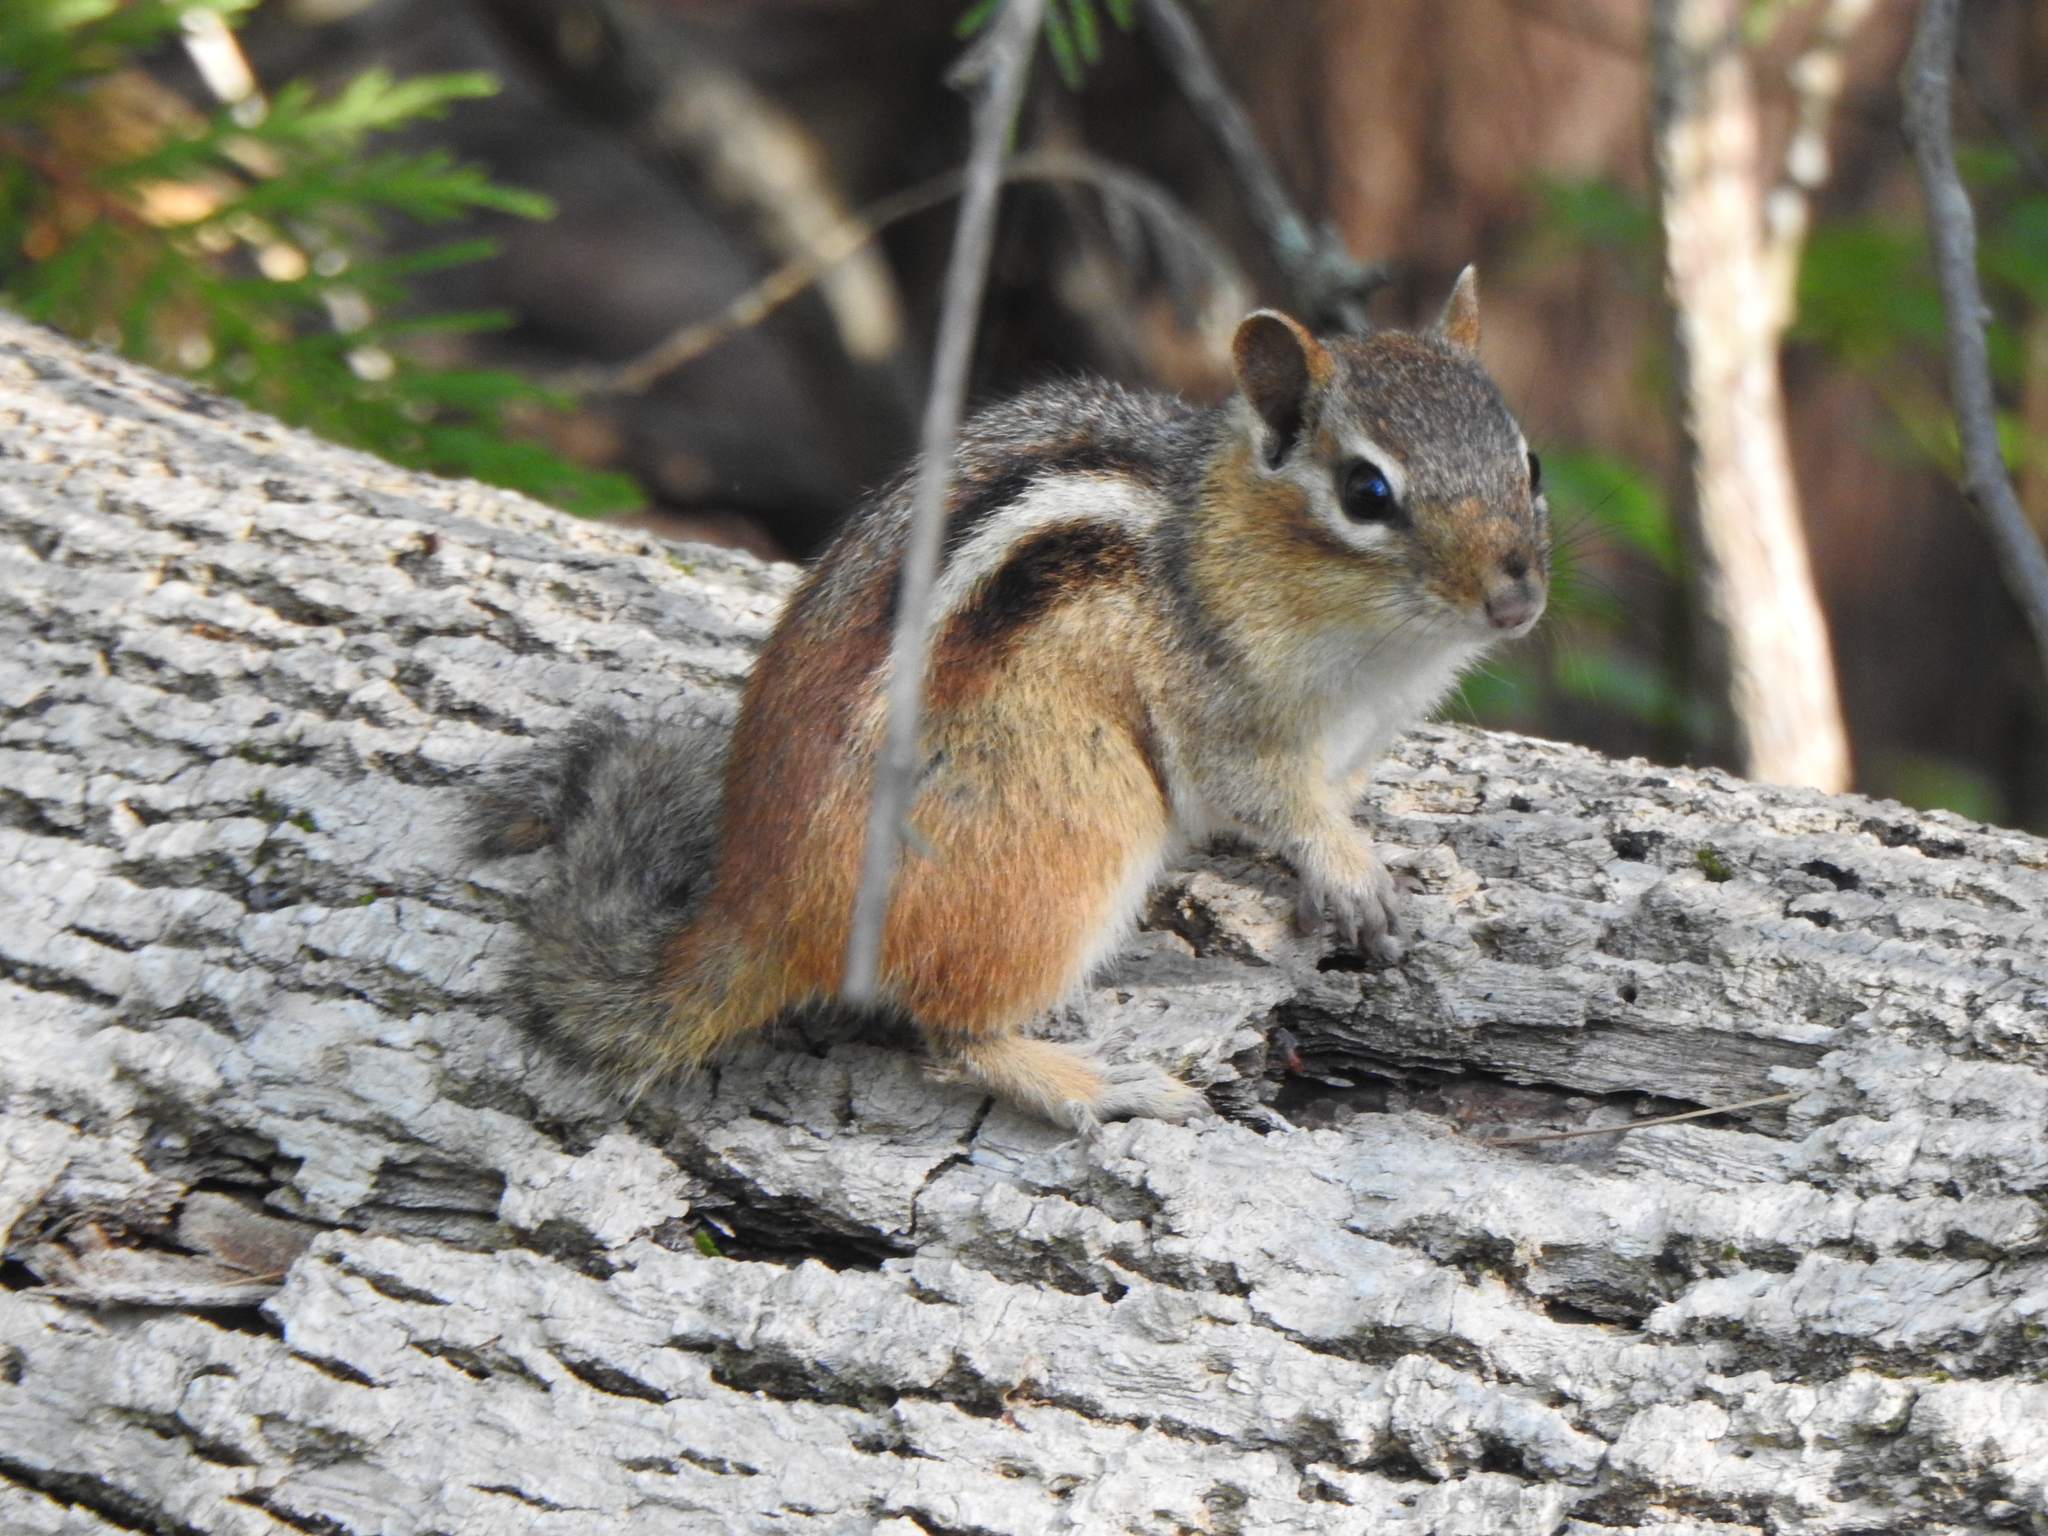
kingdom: Animalia
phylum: Chordata
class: Mammalia
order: Rodentia
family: Sciuridae
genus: Tamias
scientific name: Tamias striatus
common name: Eastern chipmunk
